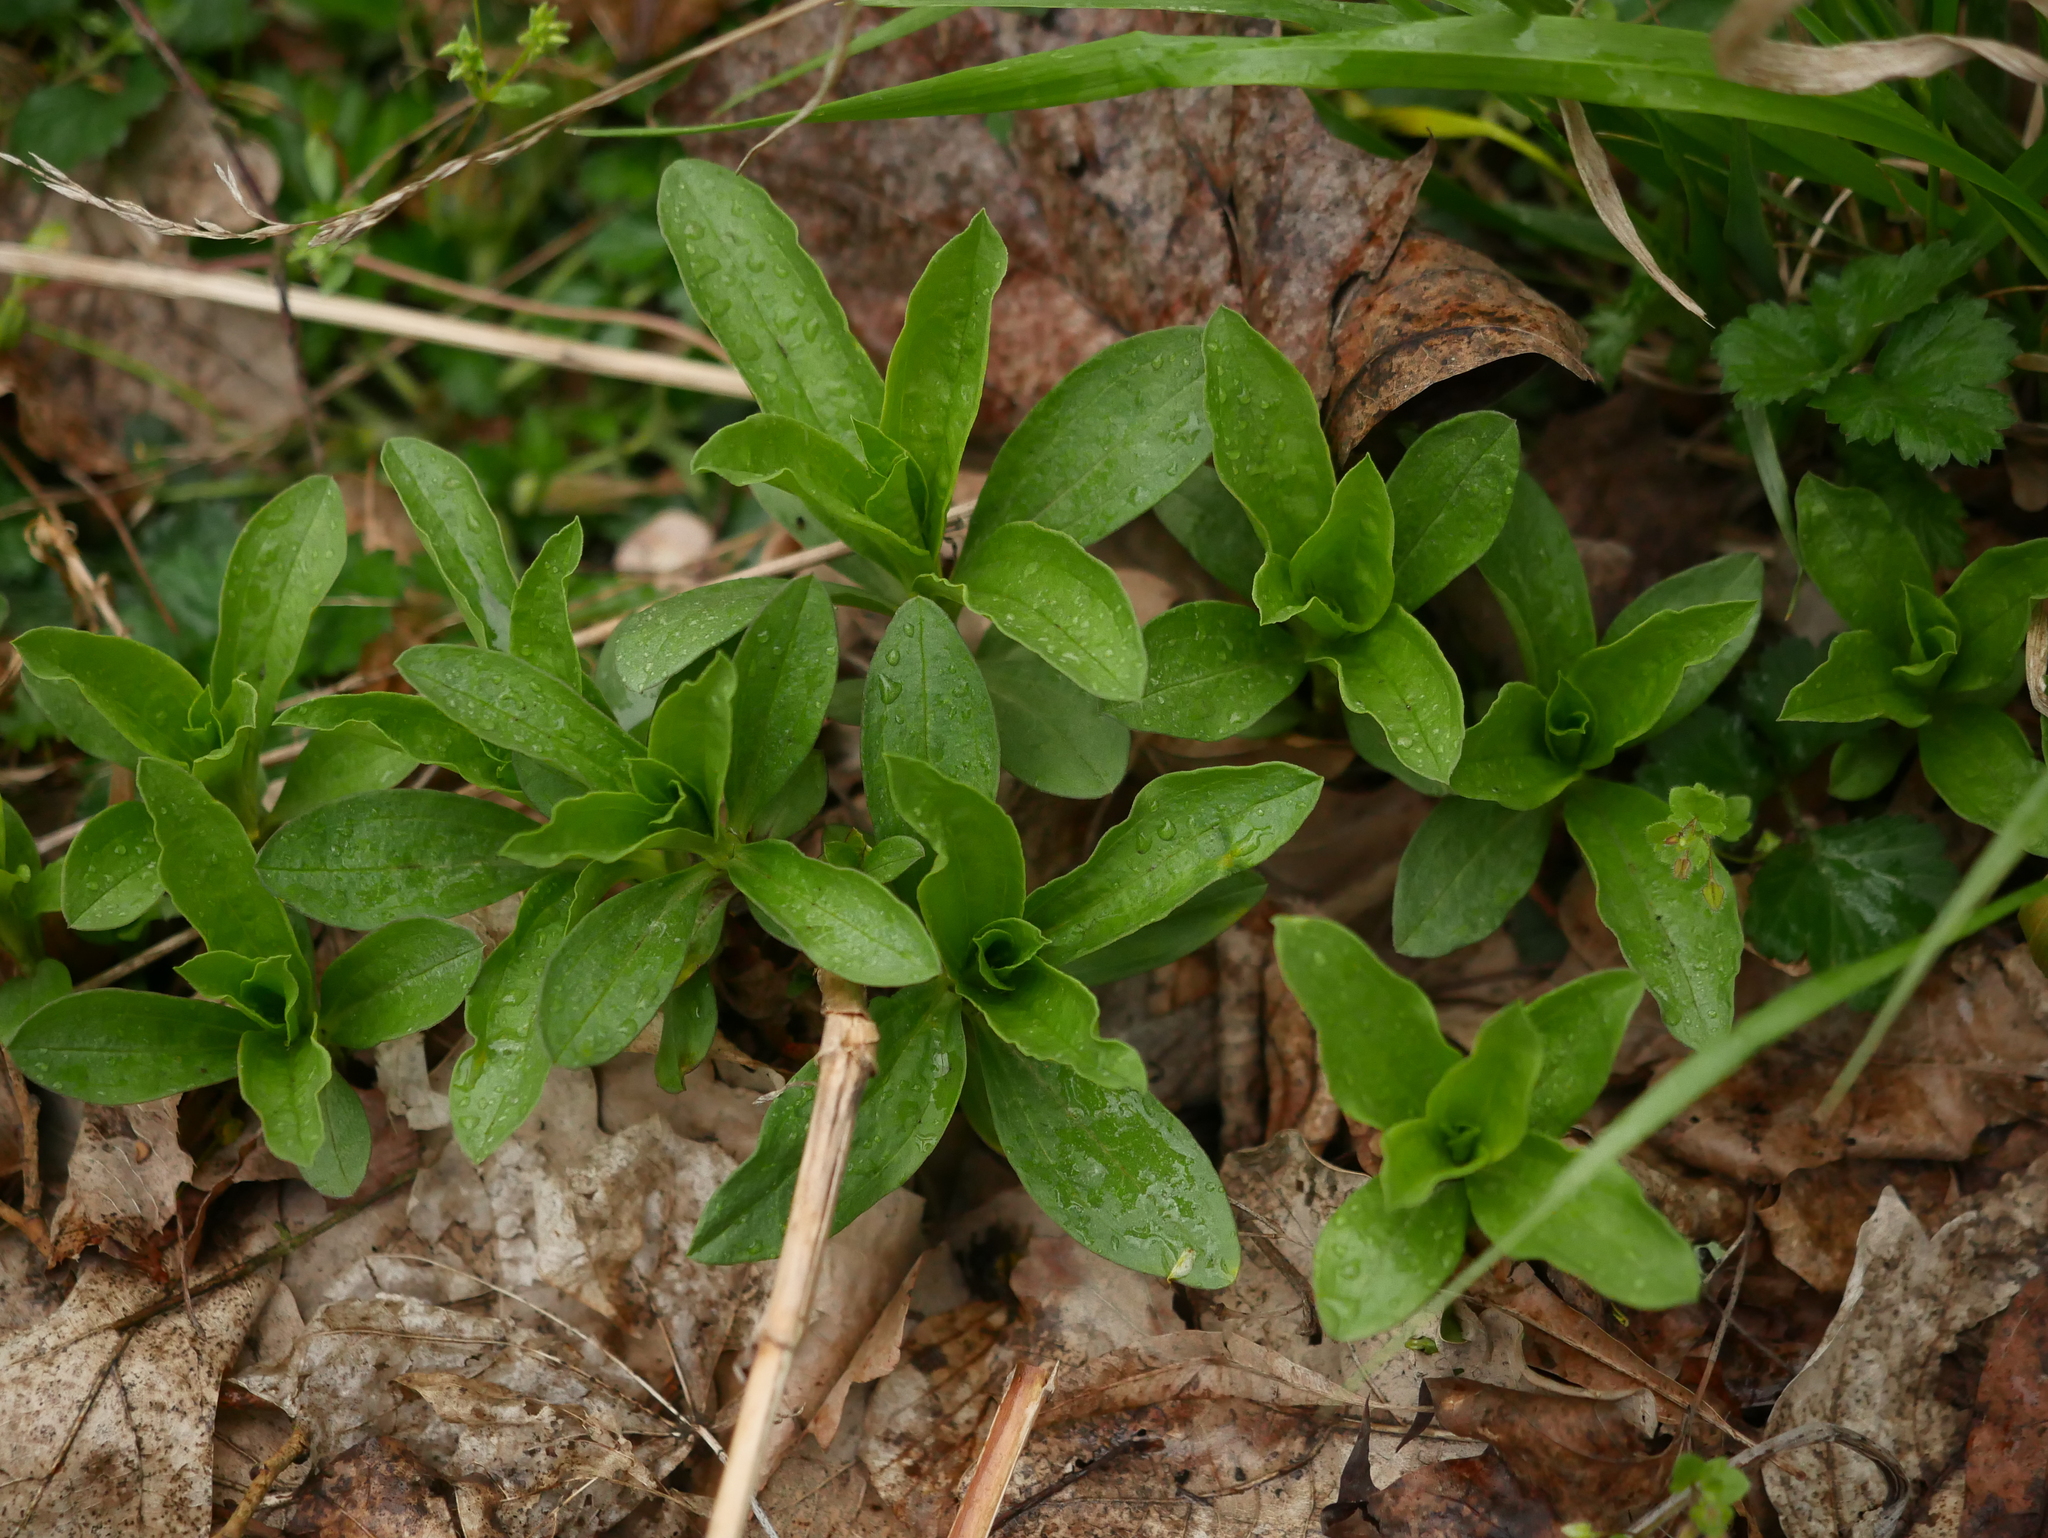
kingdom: Plantae
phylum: Tracheophyta
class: Magnoliopsida
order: Caryophyllales
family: Caryophyllaceae
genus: Saponaria
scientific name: Saponaria officinalis
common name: Soapwort
